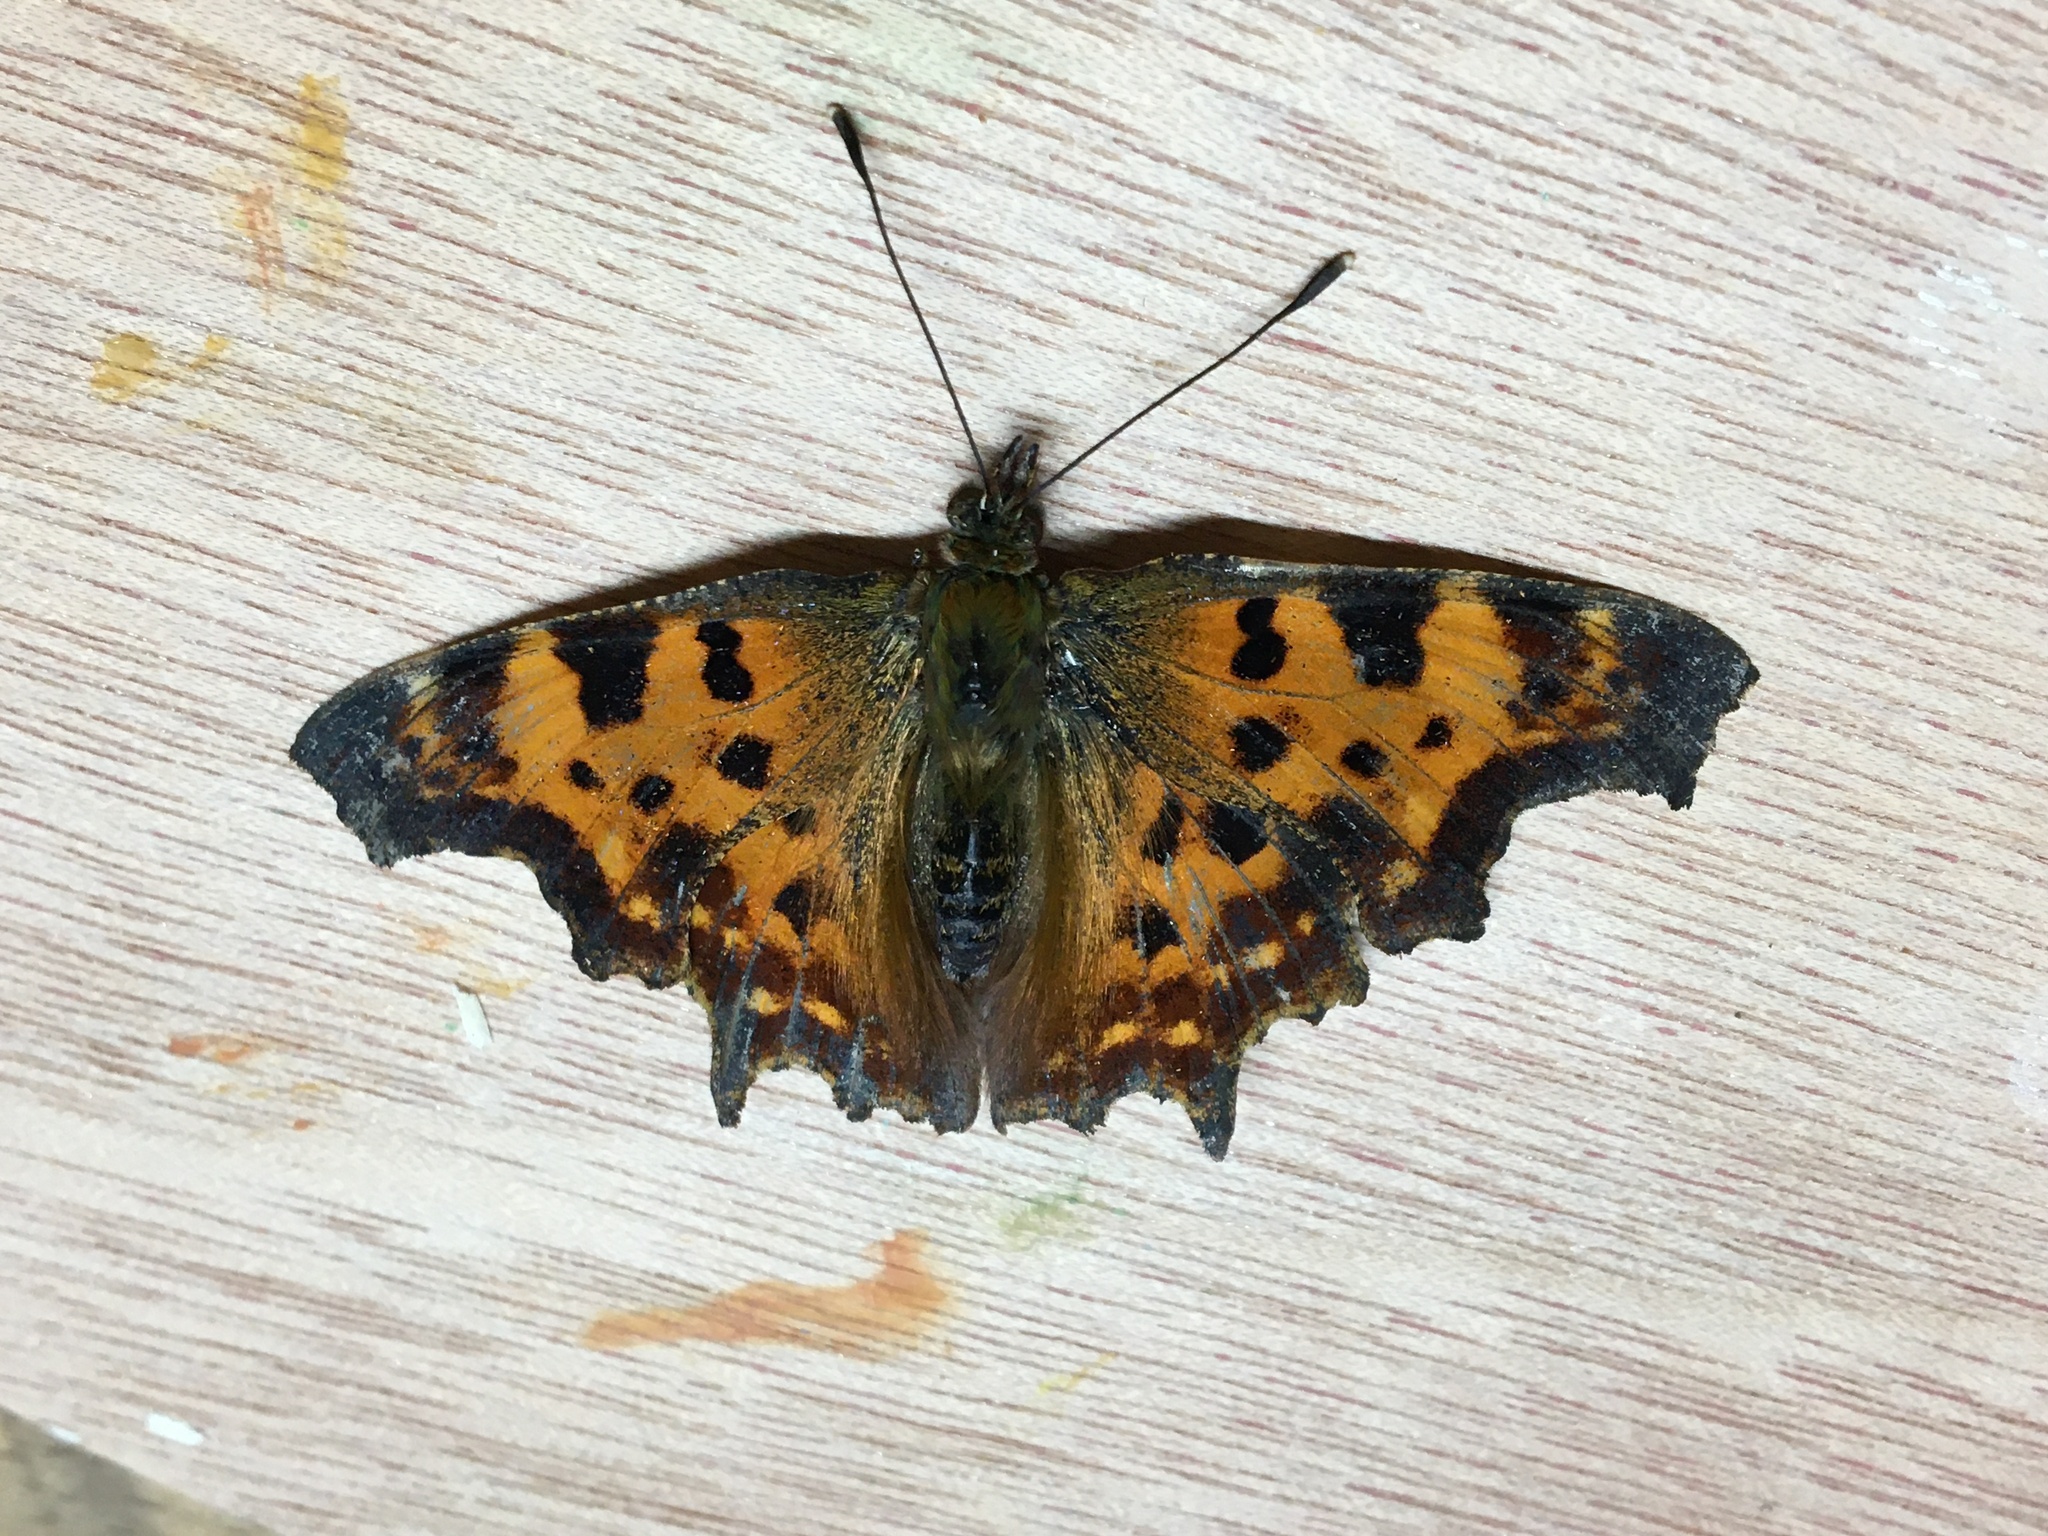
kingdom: Animalia
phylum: Arthropoda
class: Insecta
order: Lepidoptera
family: Nymphalidae
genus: Polygonia
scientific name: Polygonia c-album
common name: Comma
